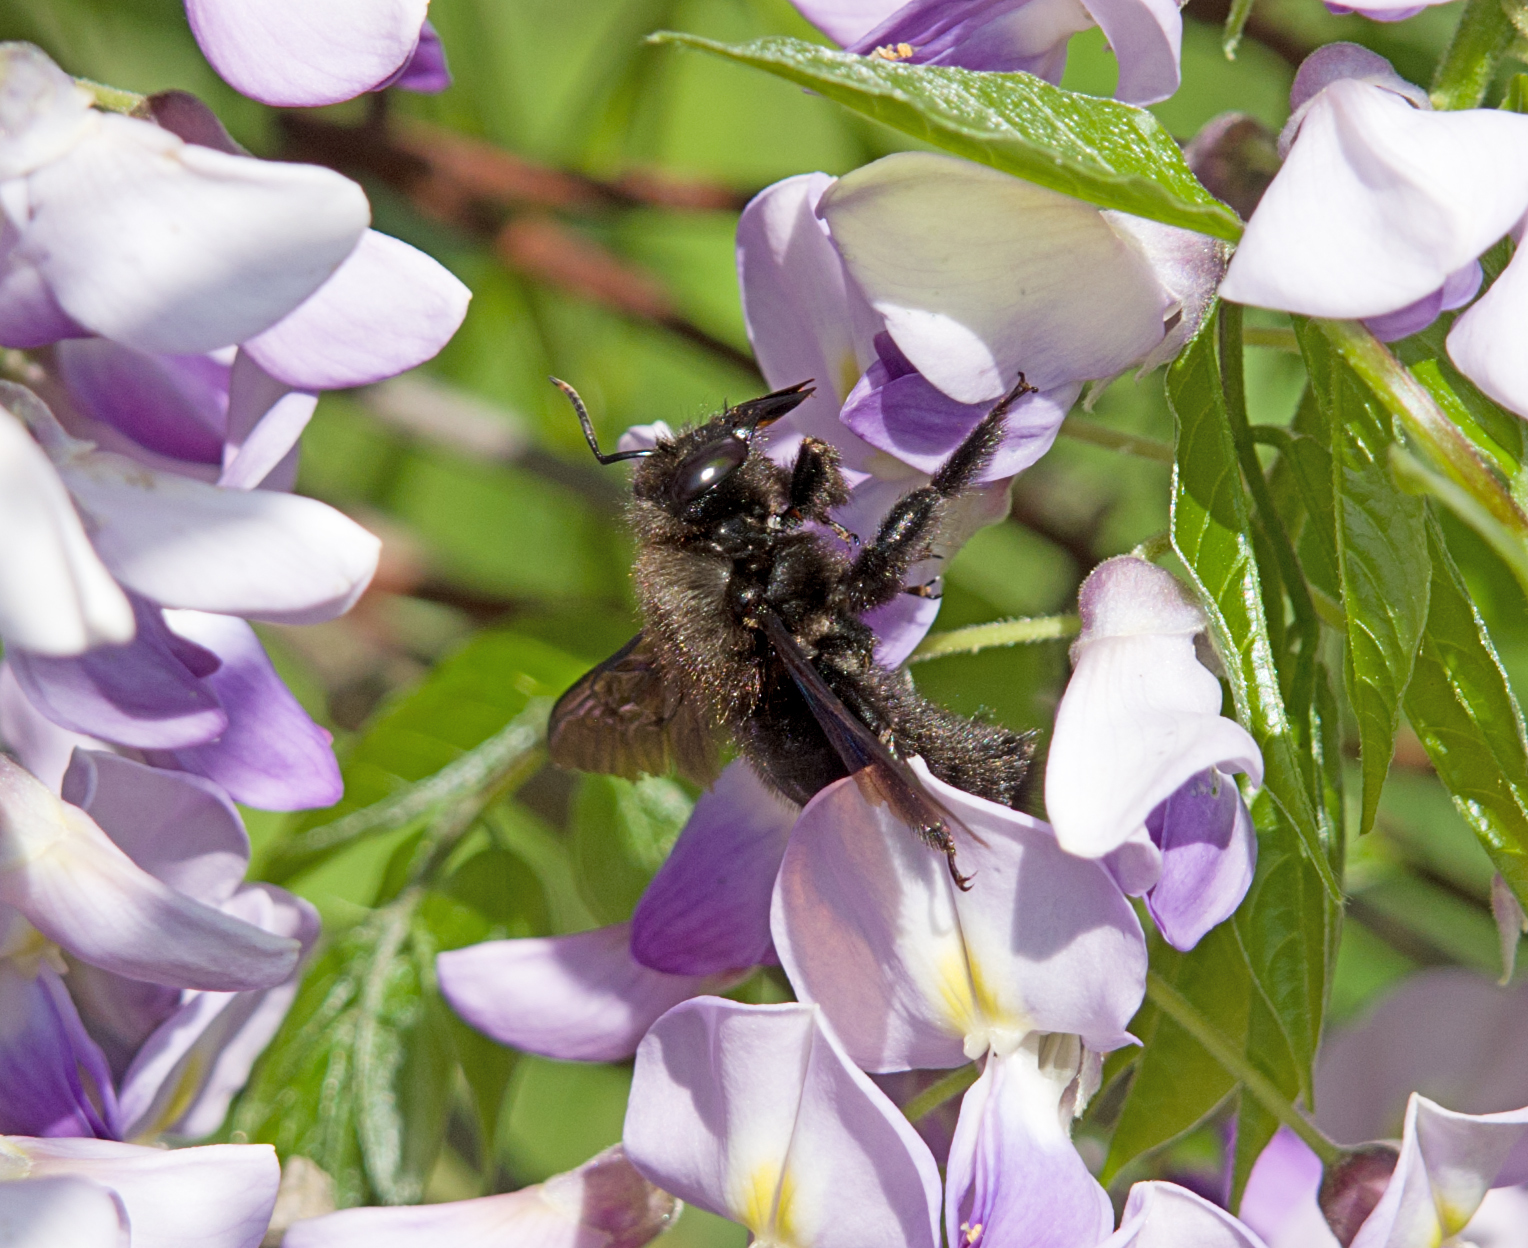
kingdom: Animalia
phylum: Arthropoda
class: Insecta
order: Hymenoptera
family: Apidae
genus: Xylocopa
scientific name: Xylocopa violacea
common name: Violet carpenter bee
